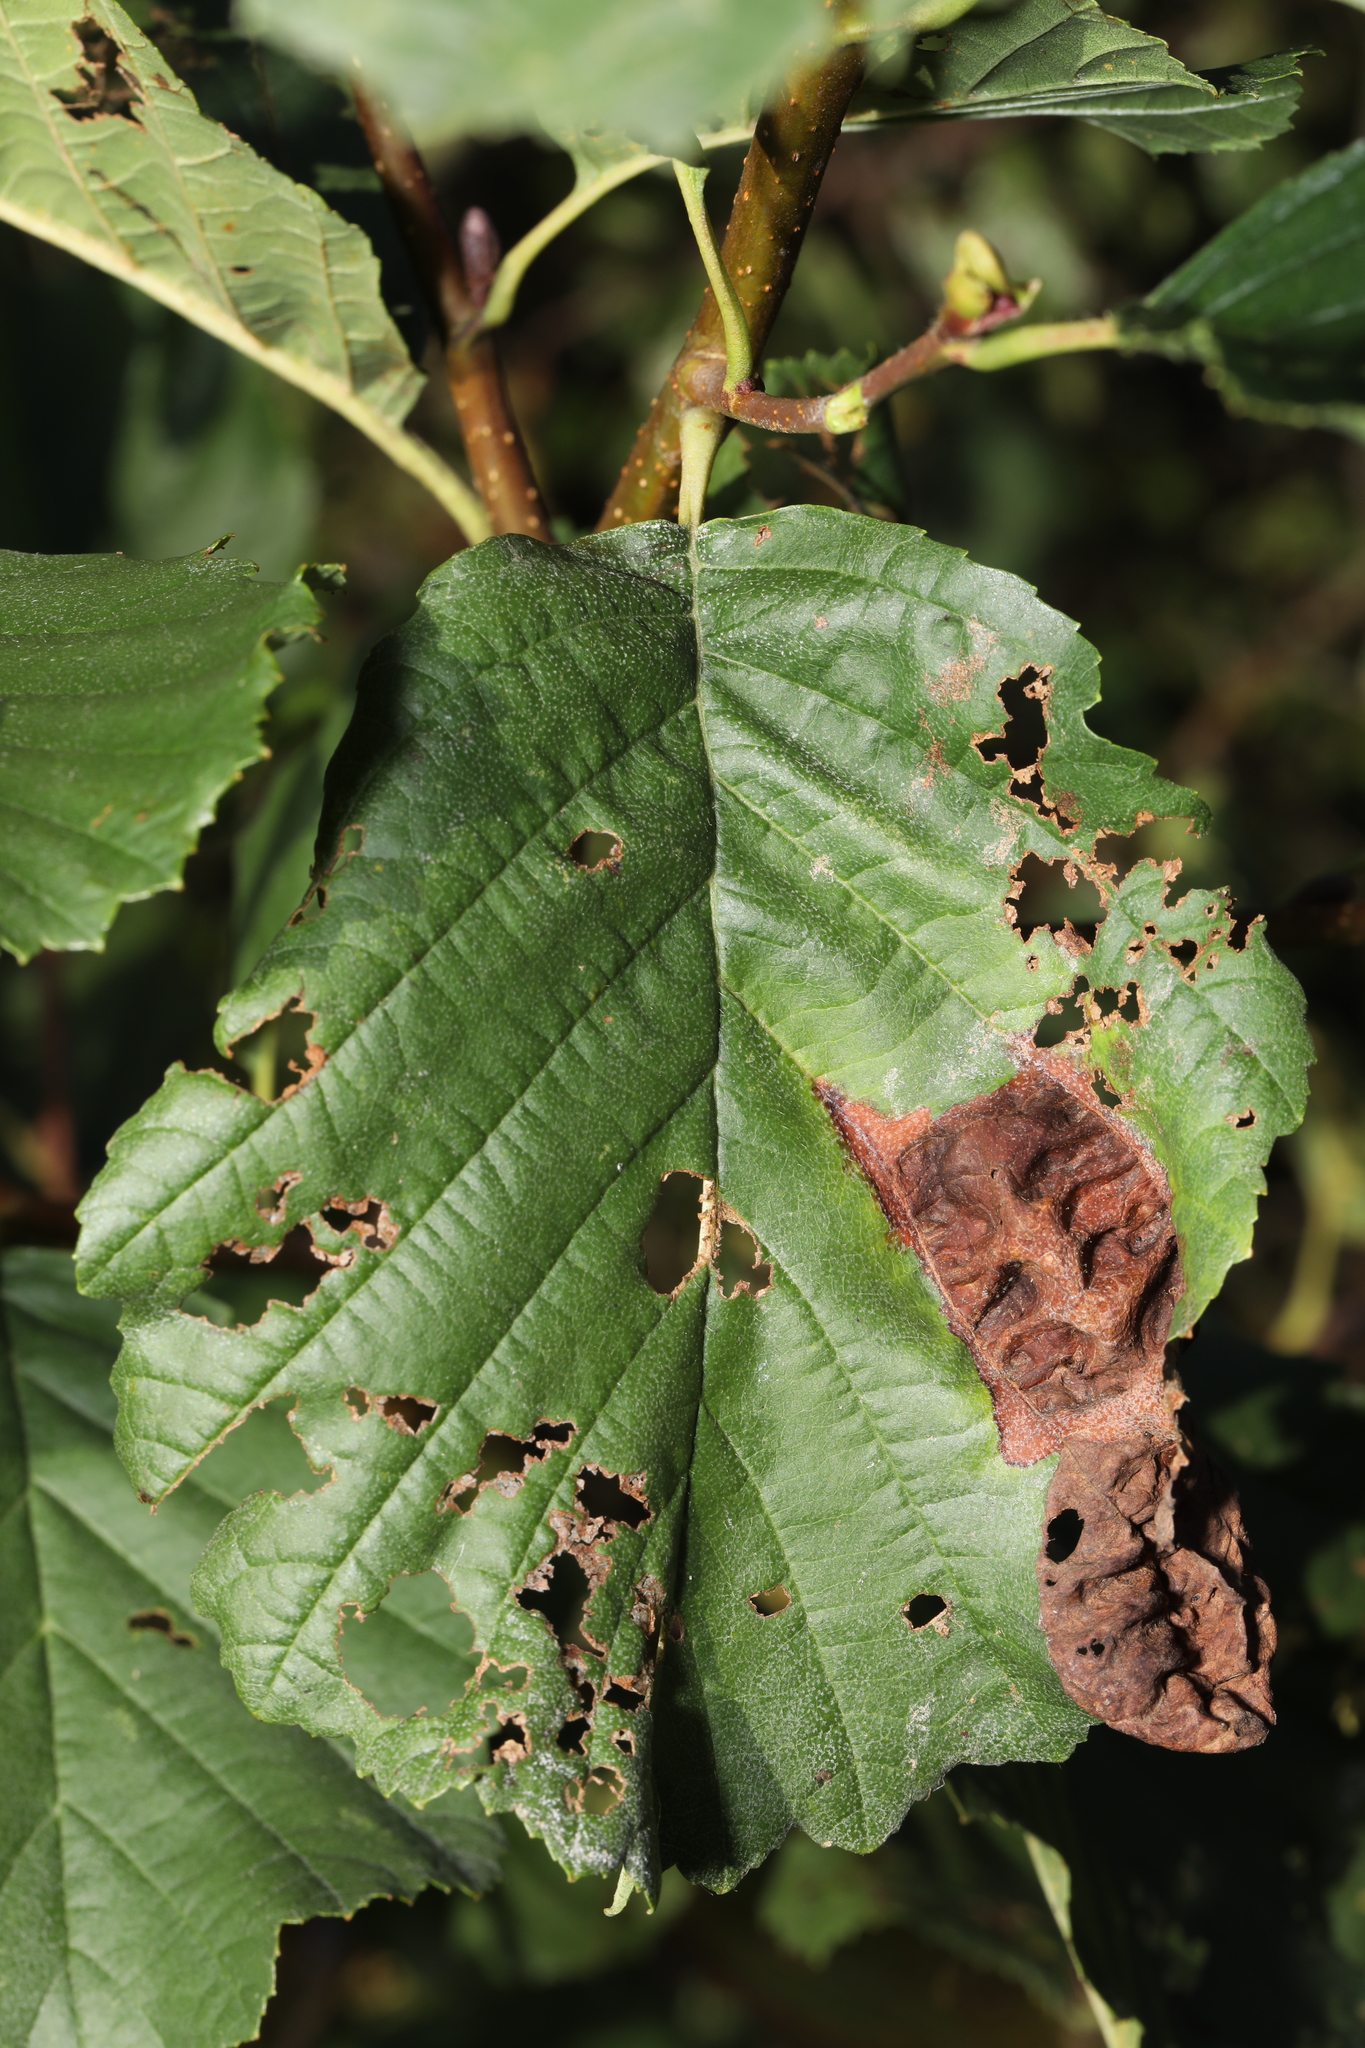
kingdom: Fungi
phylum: Ascomycota
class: Taphrinomycetes
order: Taphrinales
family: Taphrinaceae
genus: Taphrina
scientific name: Taphrina tosquinetii
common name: Alder wrinkle
